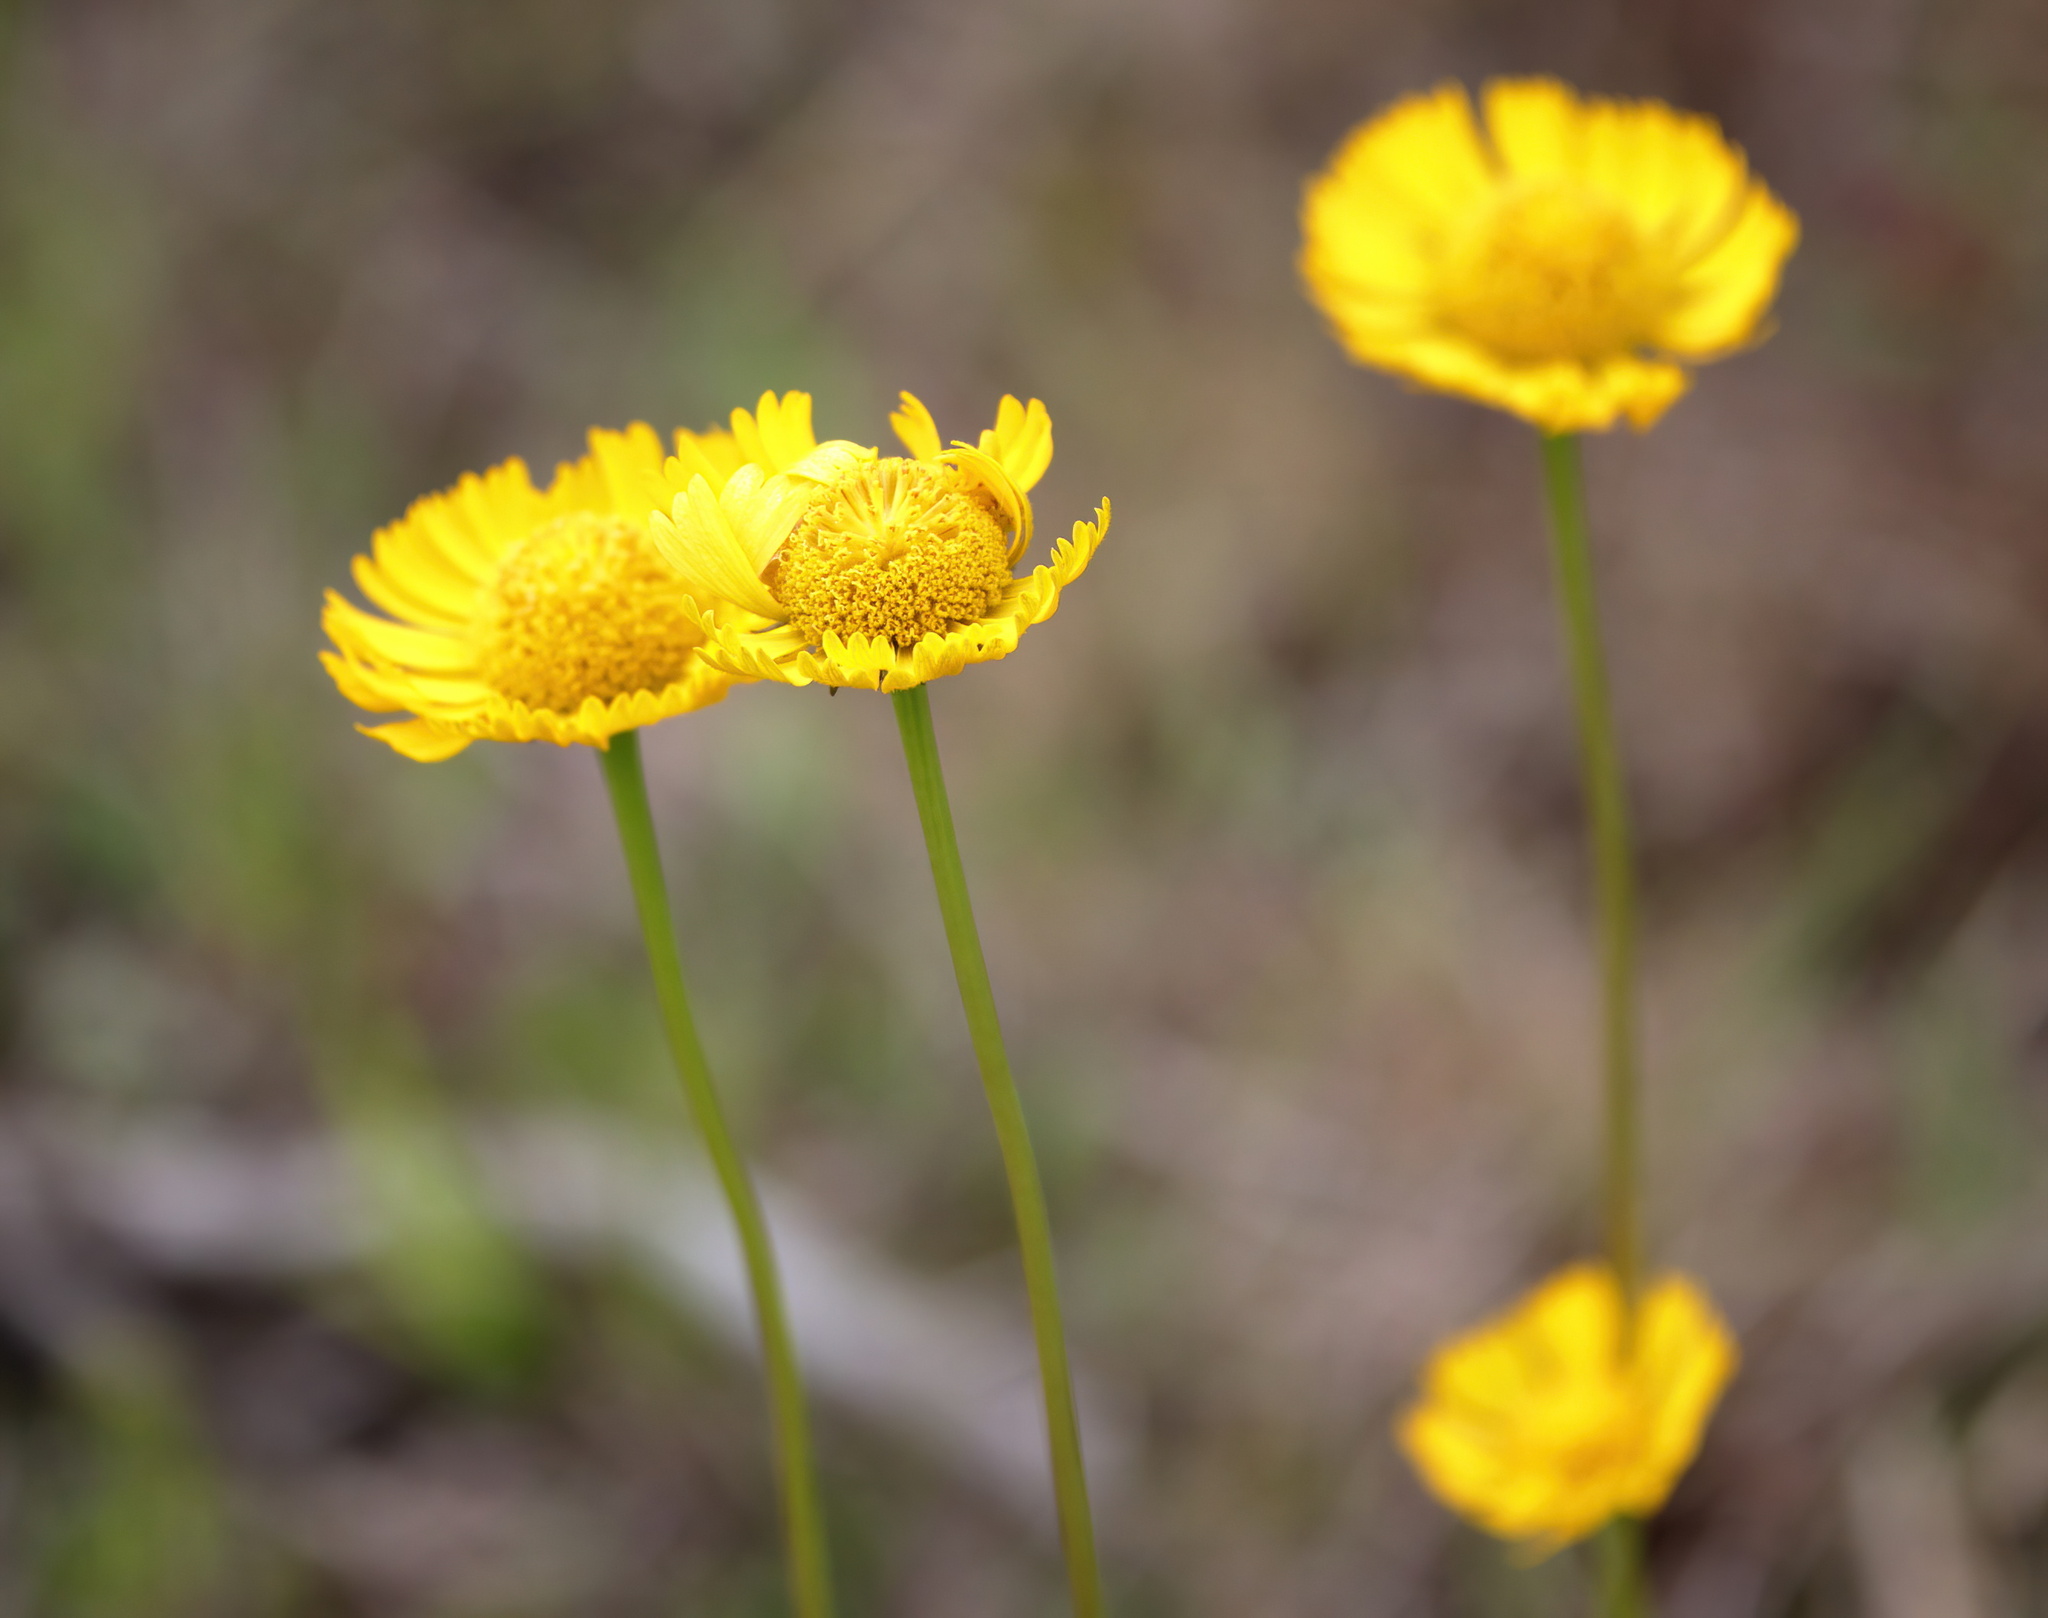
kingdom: Plantae
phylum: Tracheophyta
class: Magnoliopsida
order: Asterales
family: Asteraceae
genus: Helenium
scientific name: Helenium vernale
